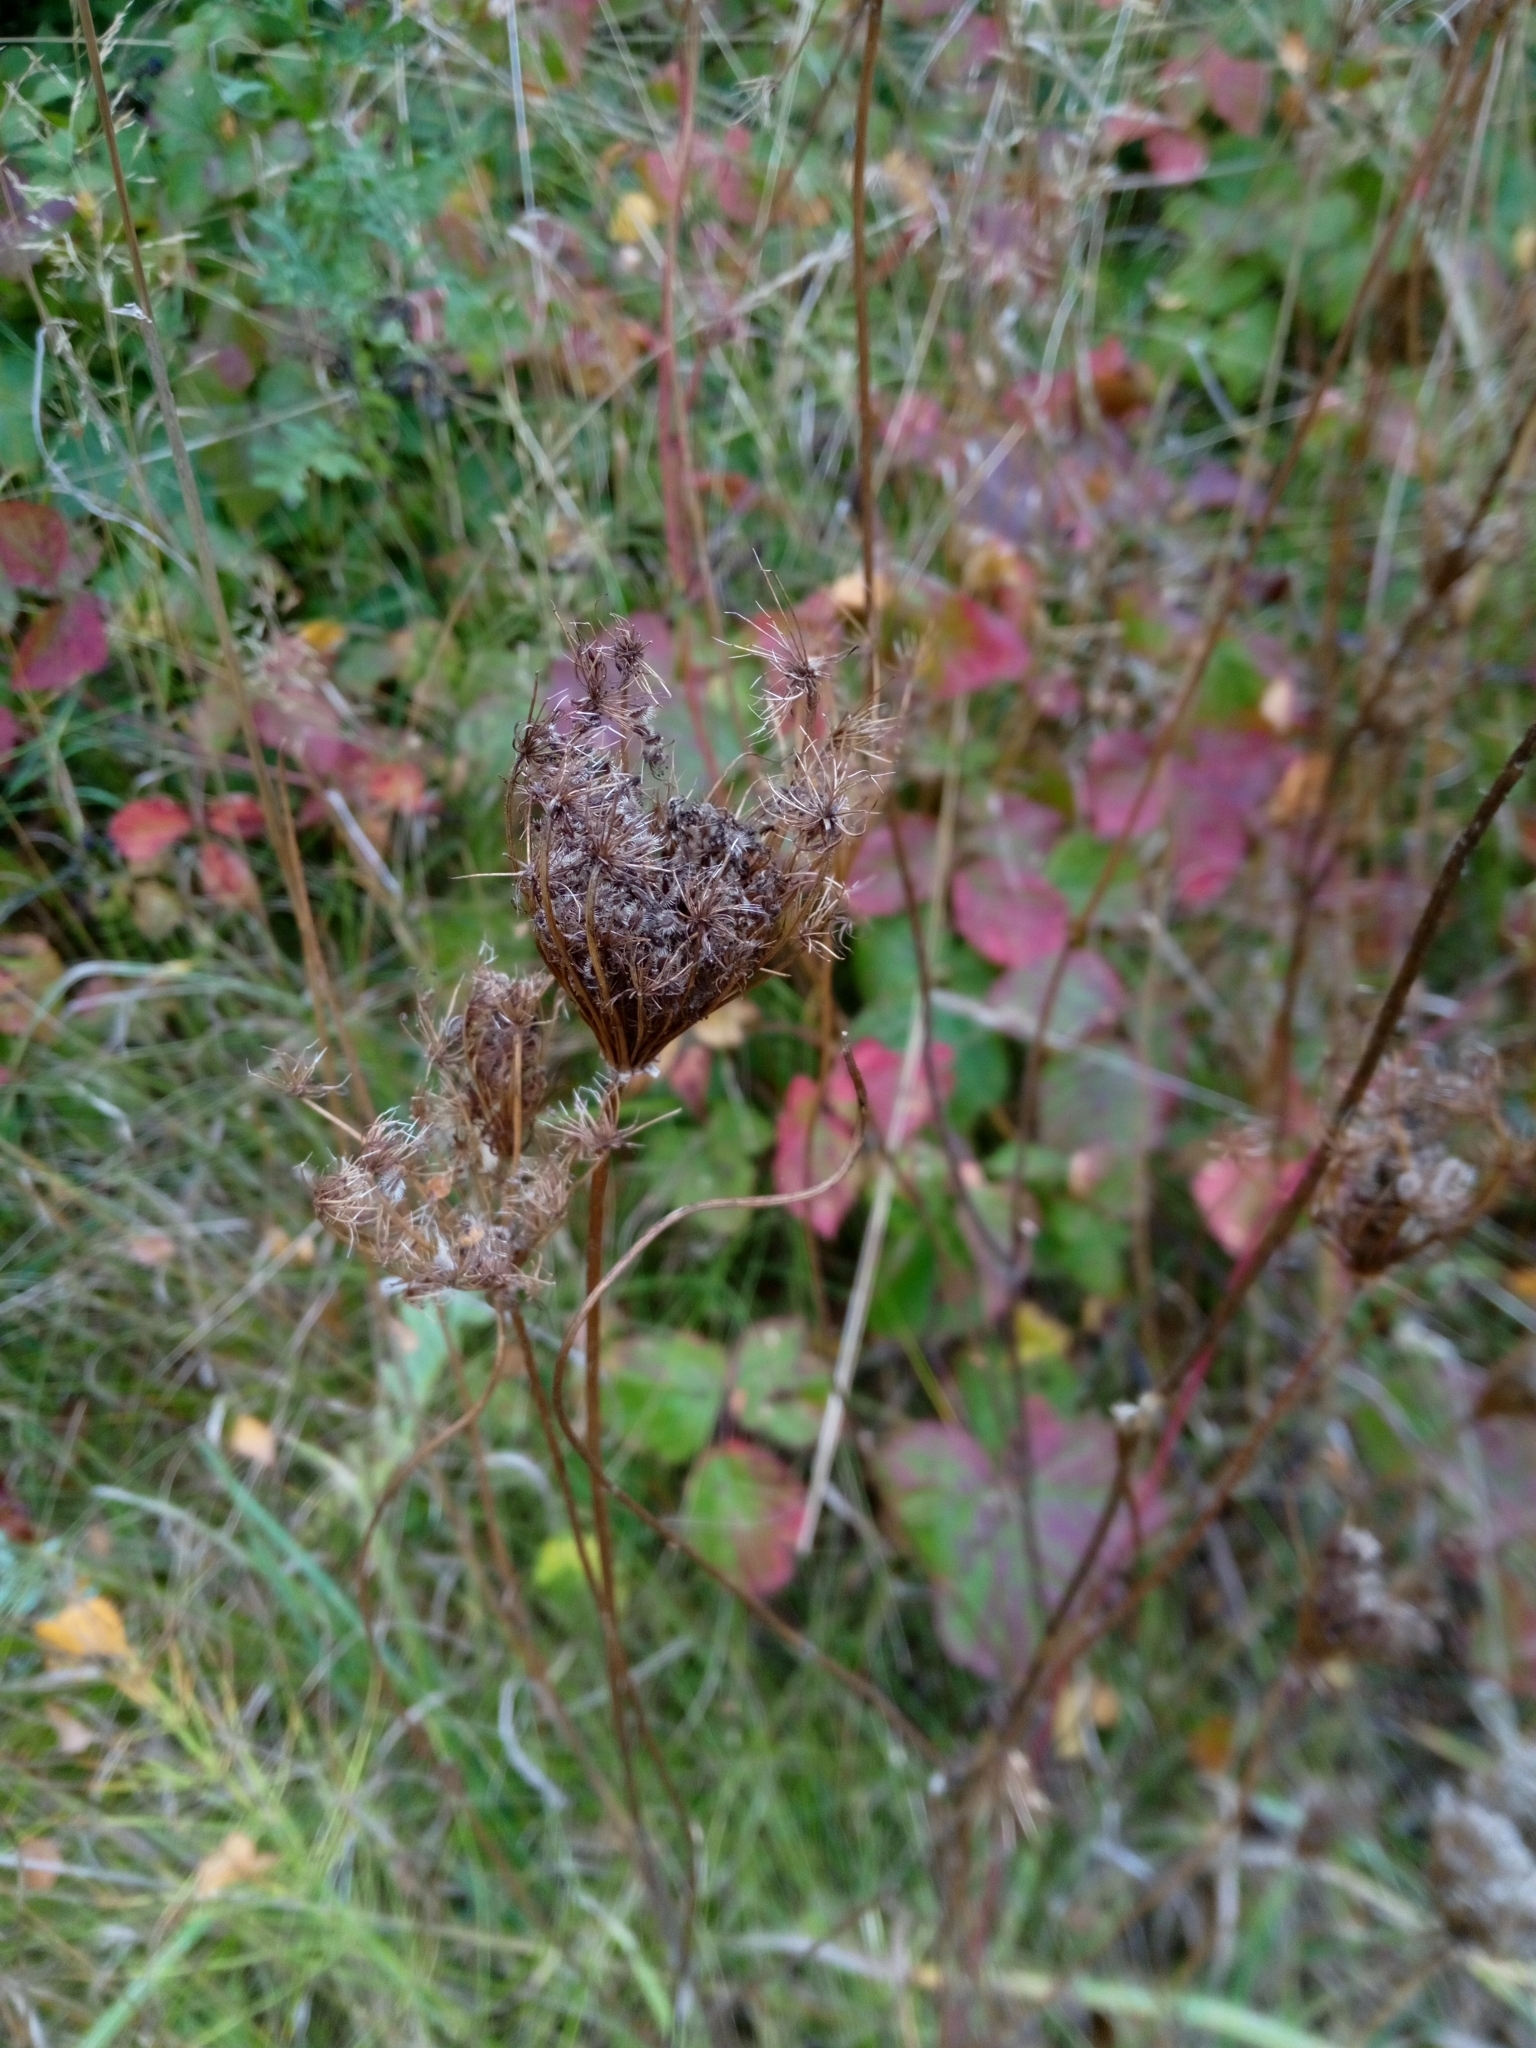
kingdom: Plantae
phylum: Tracheophyta
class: Magnoliopsida
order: Apiales
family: Apiaceae
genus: Daucus
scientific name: Daucus carota
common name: Wild carrot
